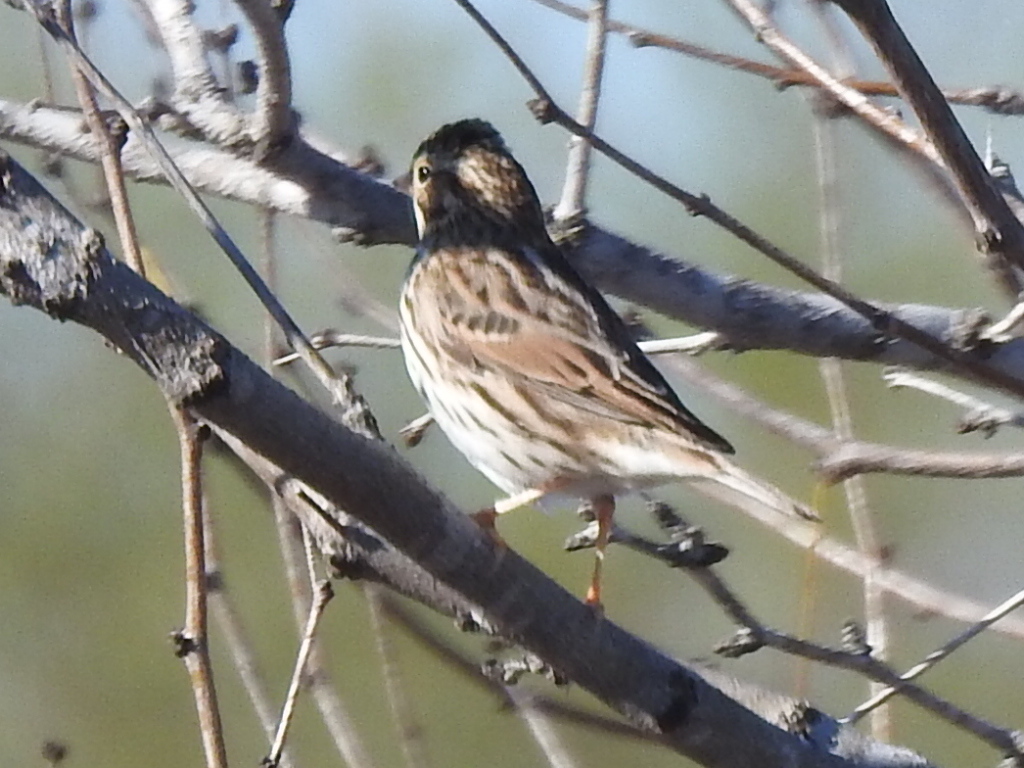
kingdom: Animalia
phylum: Chordata
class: Aves
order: Passeriformes
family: Passerellidae
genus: Passerculus
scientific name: Passerculus sandwichensis
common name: Savannah sparrow
